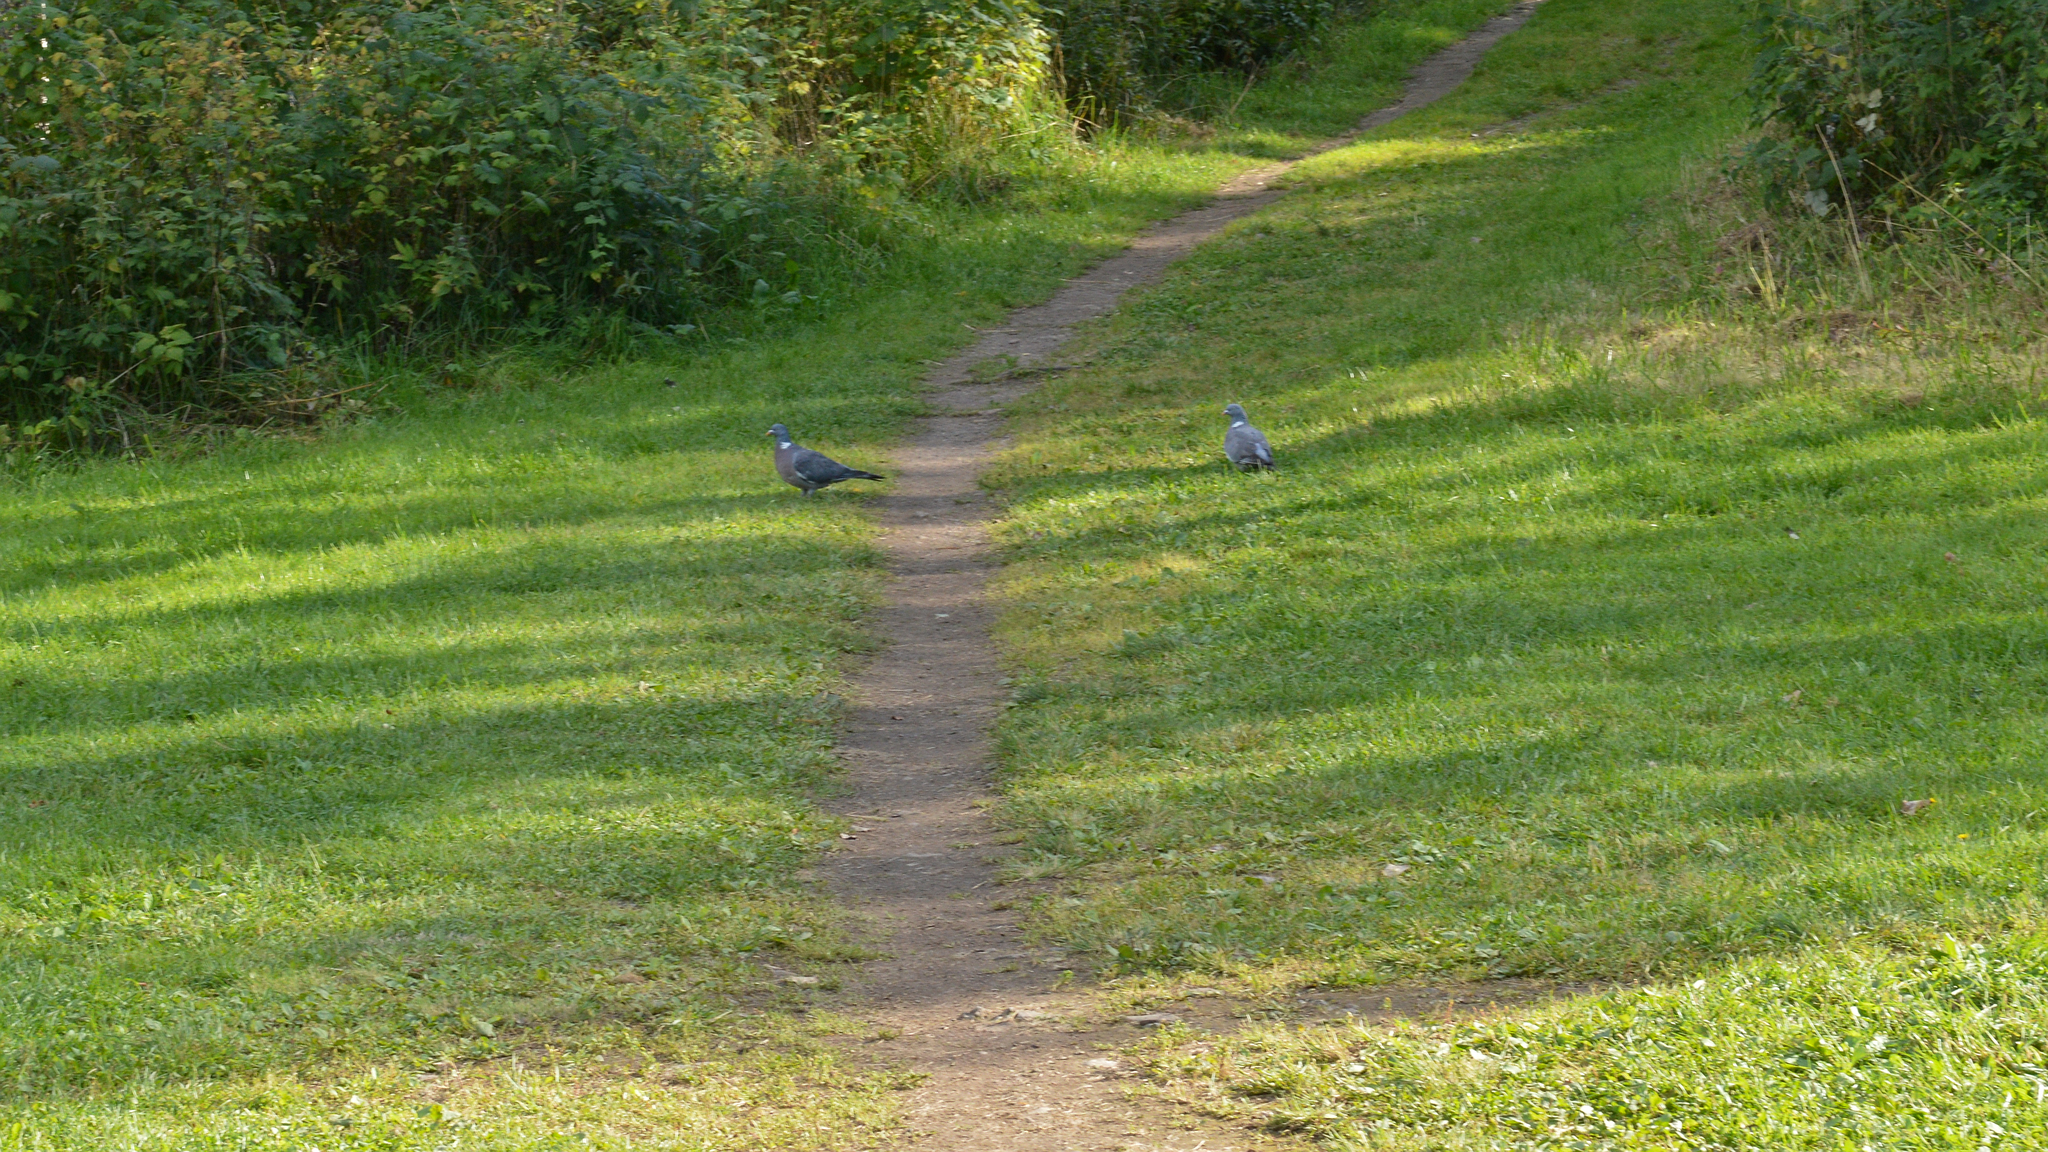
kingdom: Animalia
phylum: Chordata
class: Aves
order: Columbiformes
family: Columbidae
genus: Columba
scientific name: Columba palumbus
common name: Common wood pigeon
